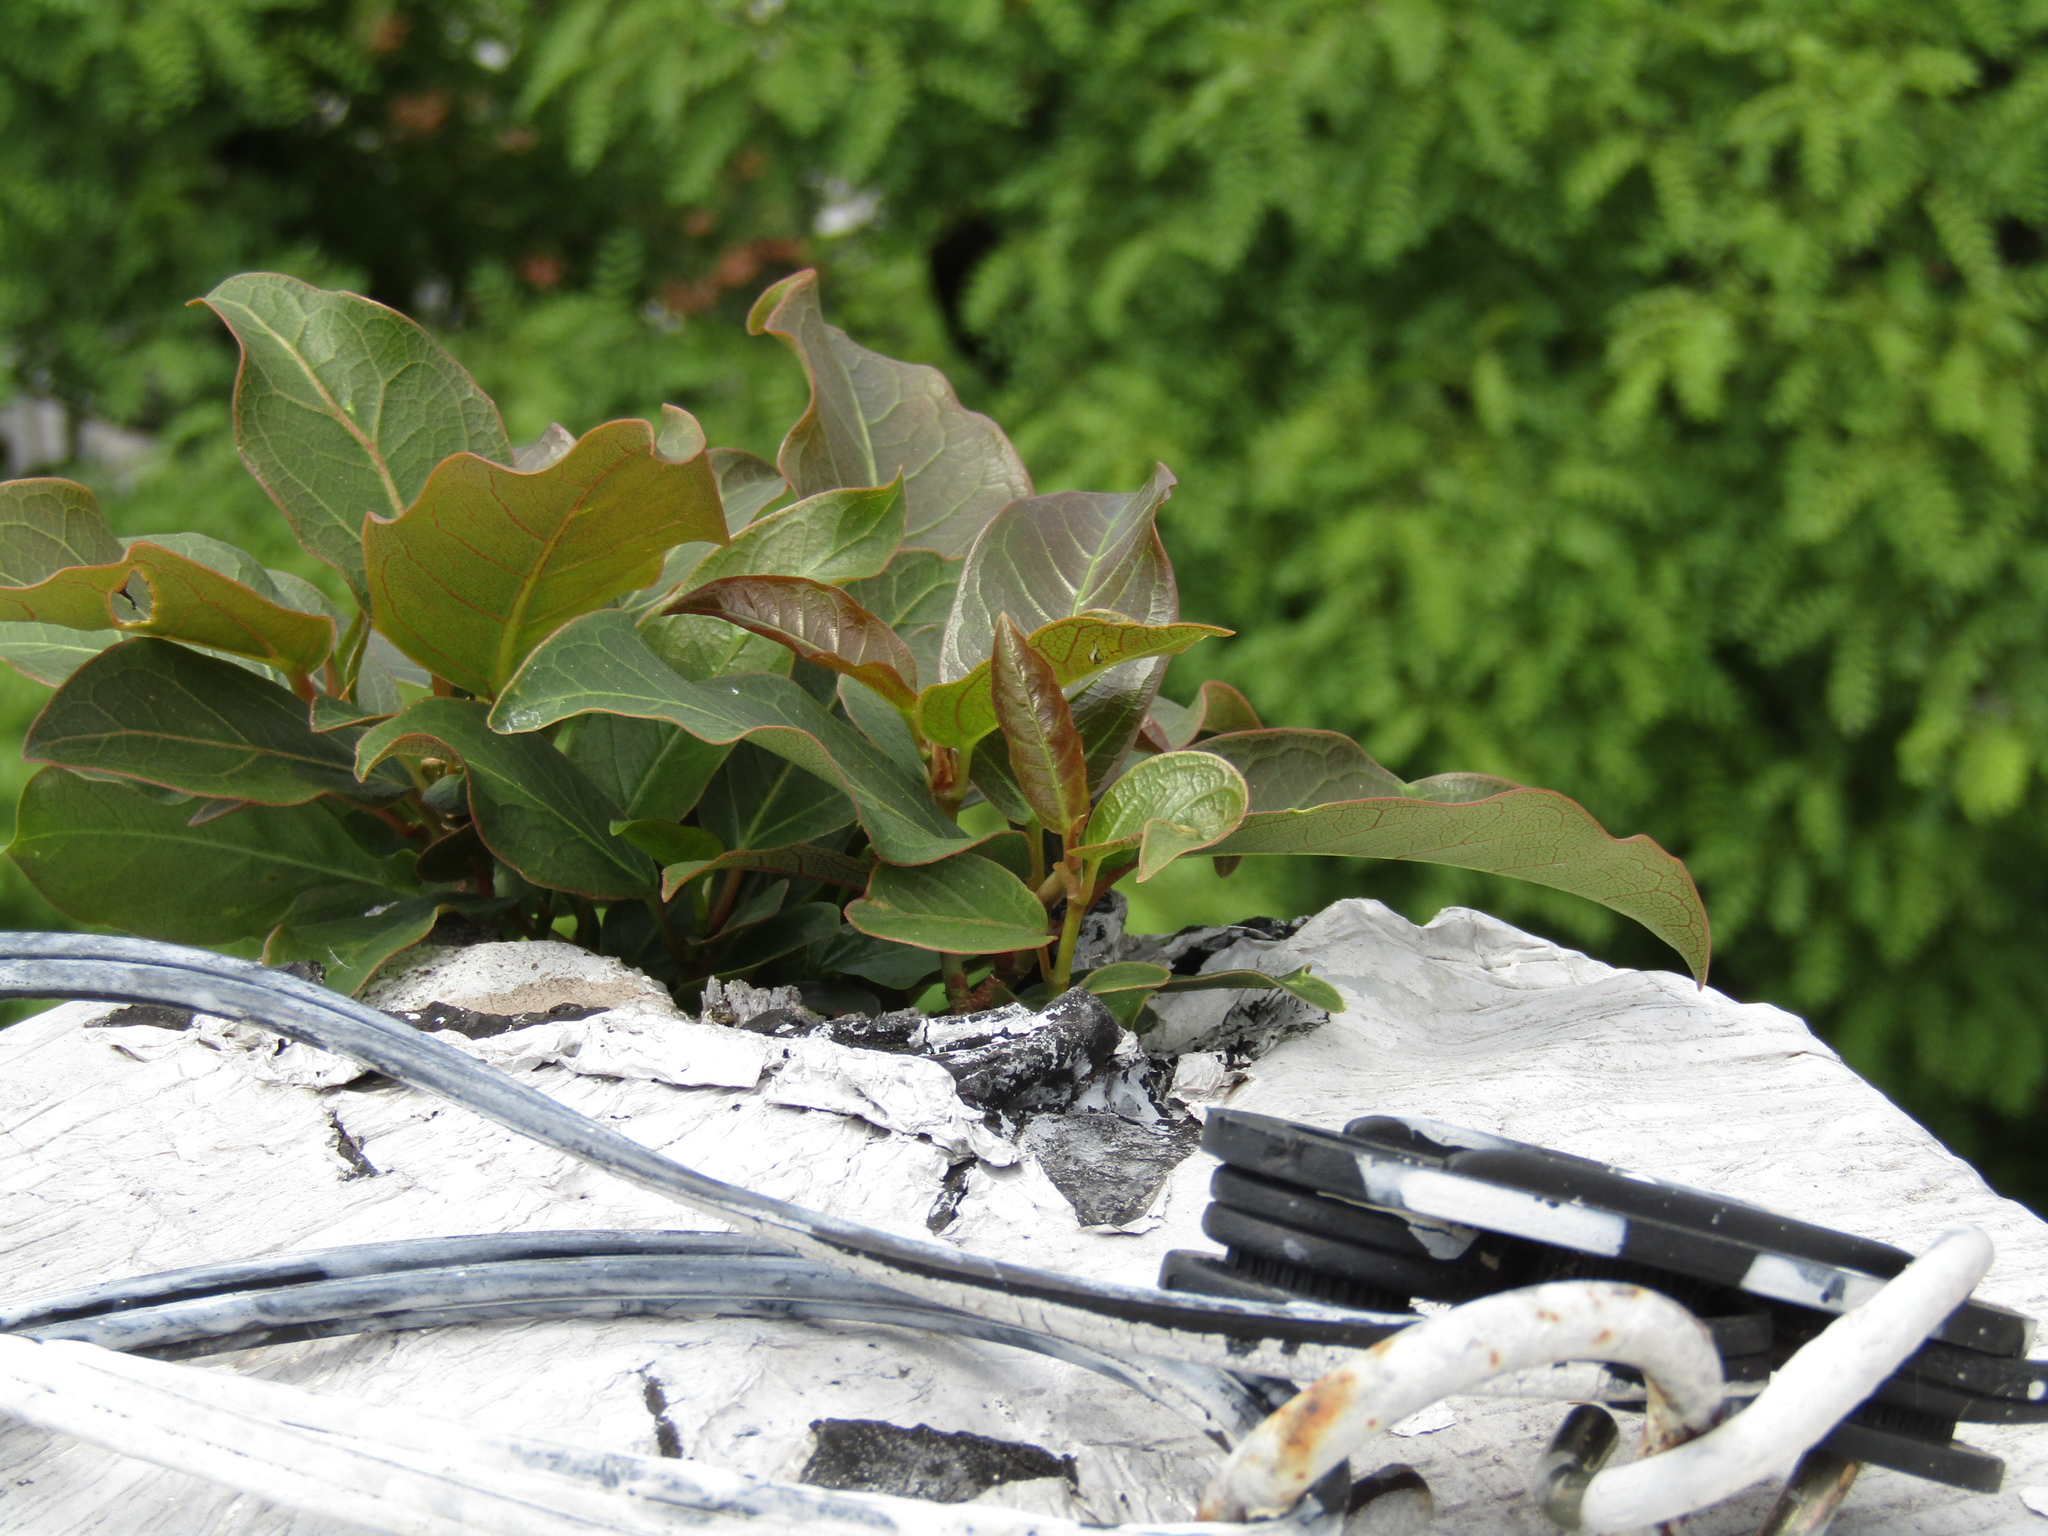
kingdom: Plantae
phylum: Tracheophyta
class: Magnoliopsida
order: Rosales
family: Moraceae
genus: Ficus
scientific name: Ficus luschnathiana
